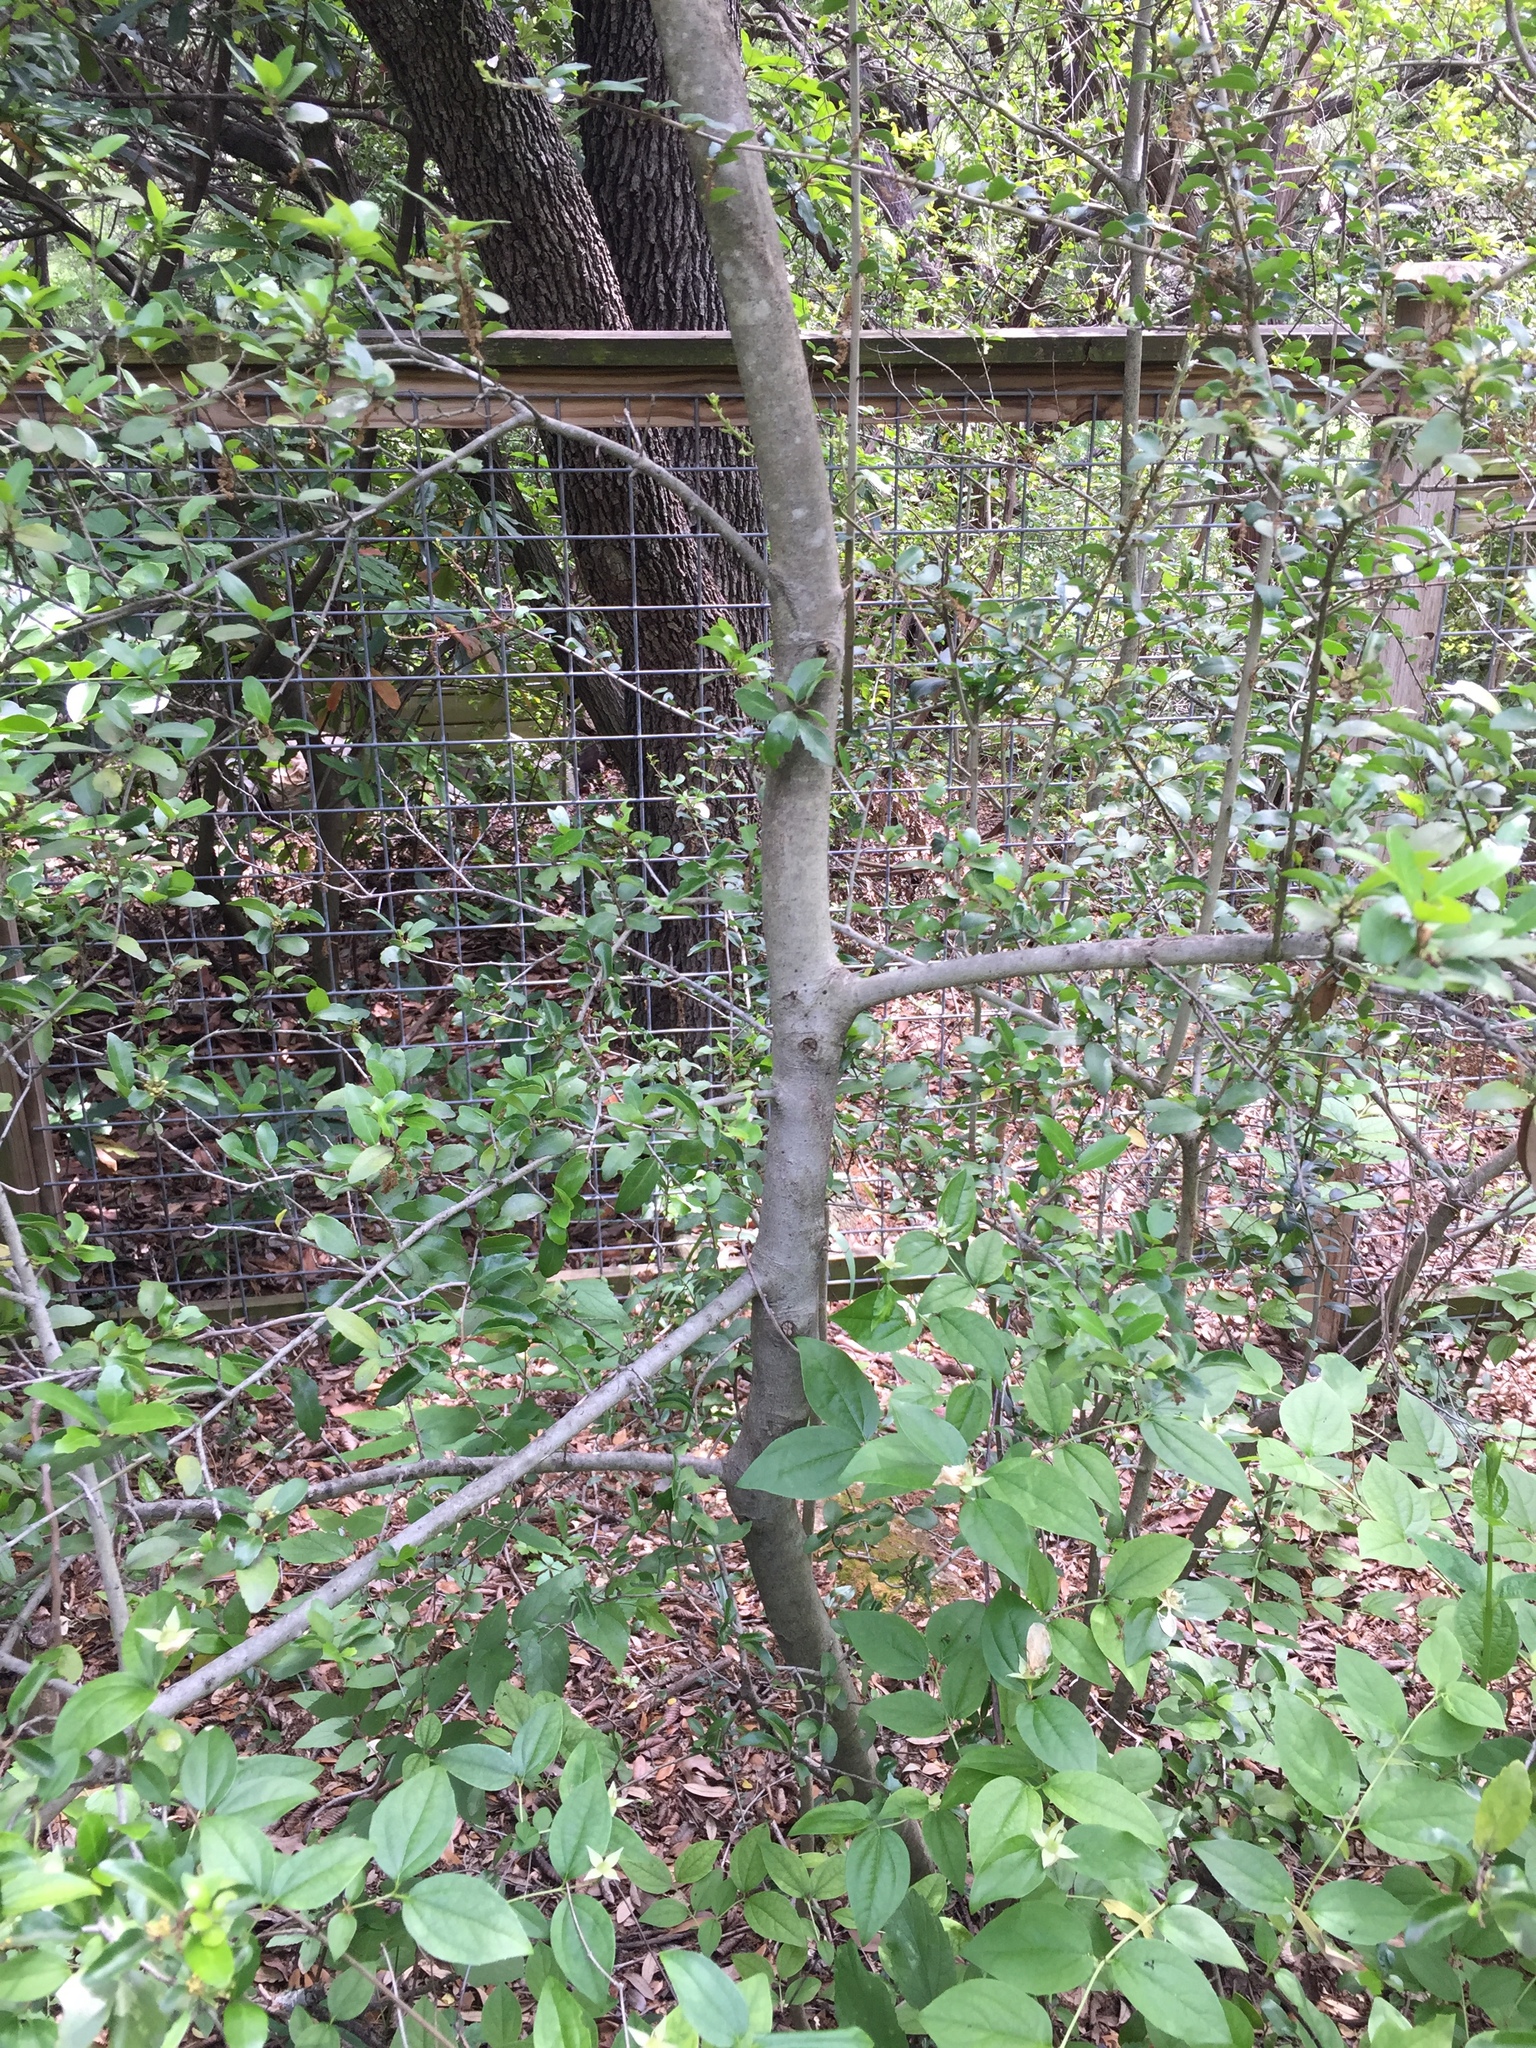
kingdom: Plantae
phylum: Tracheophyta
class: Magnoliopsida
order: Aquifoliales
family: Aquifoliaceae
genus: Ilex
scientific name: Ilex vomitoria
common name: Yaupon holly
